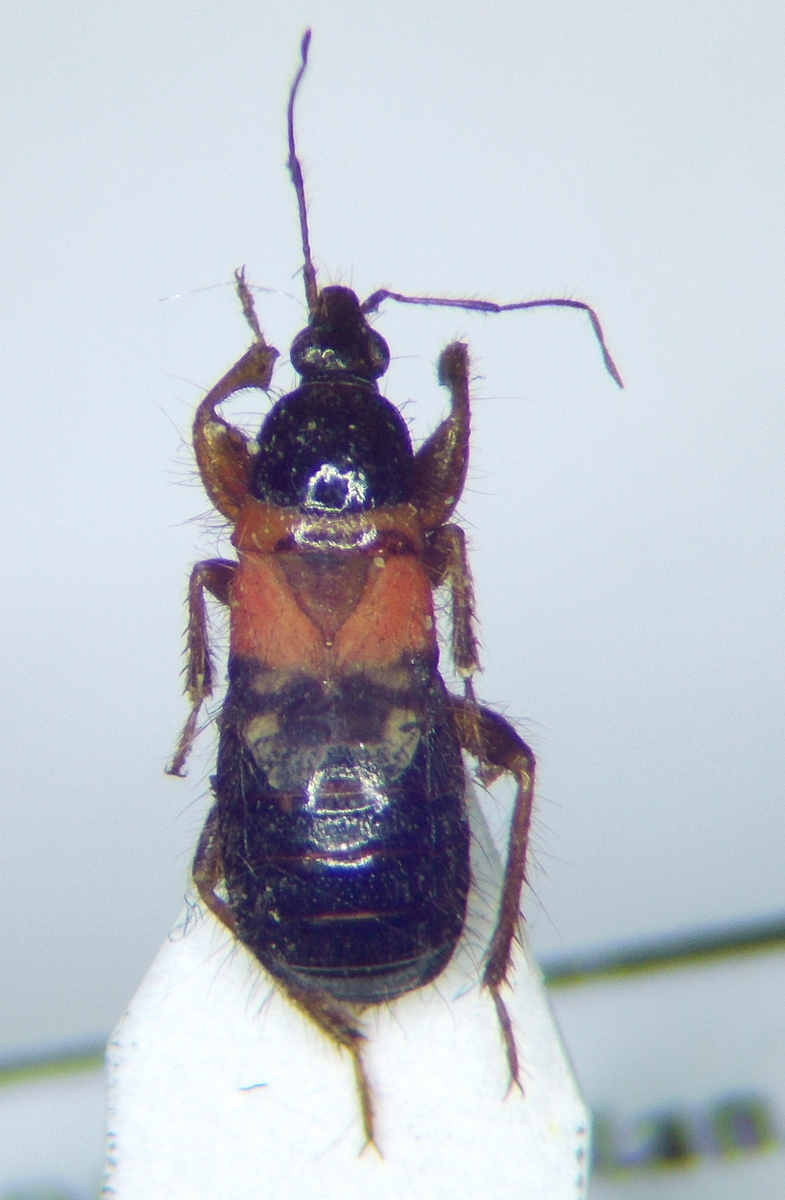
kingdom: Animalia
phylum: Arthropoda
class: Insecta
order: Hemiptera
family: Nabidae
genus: Prostemma
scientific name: Prostemma sanguineum
